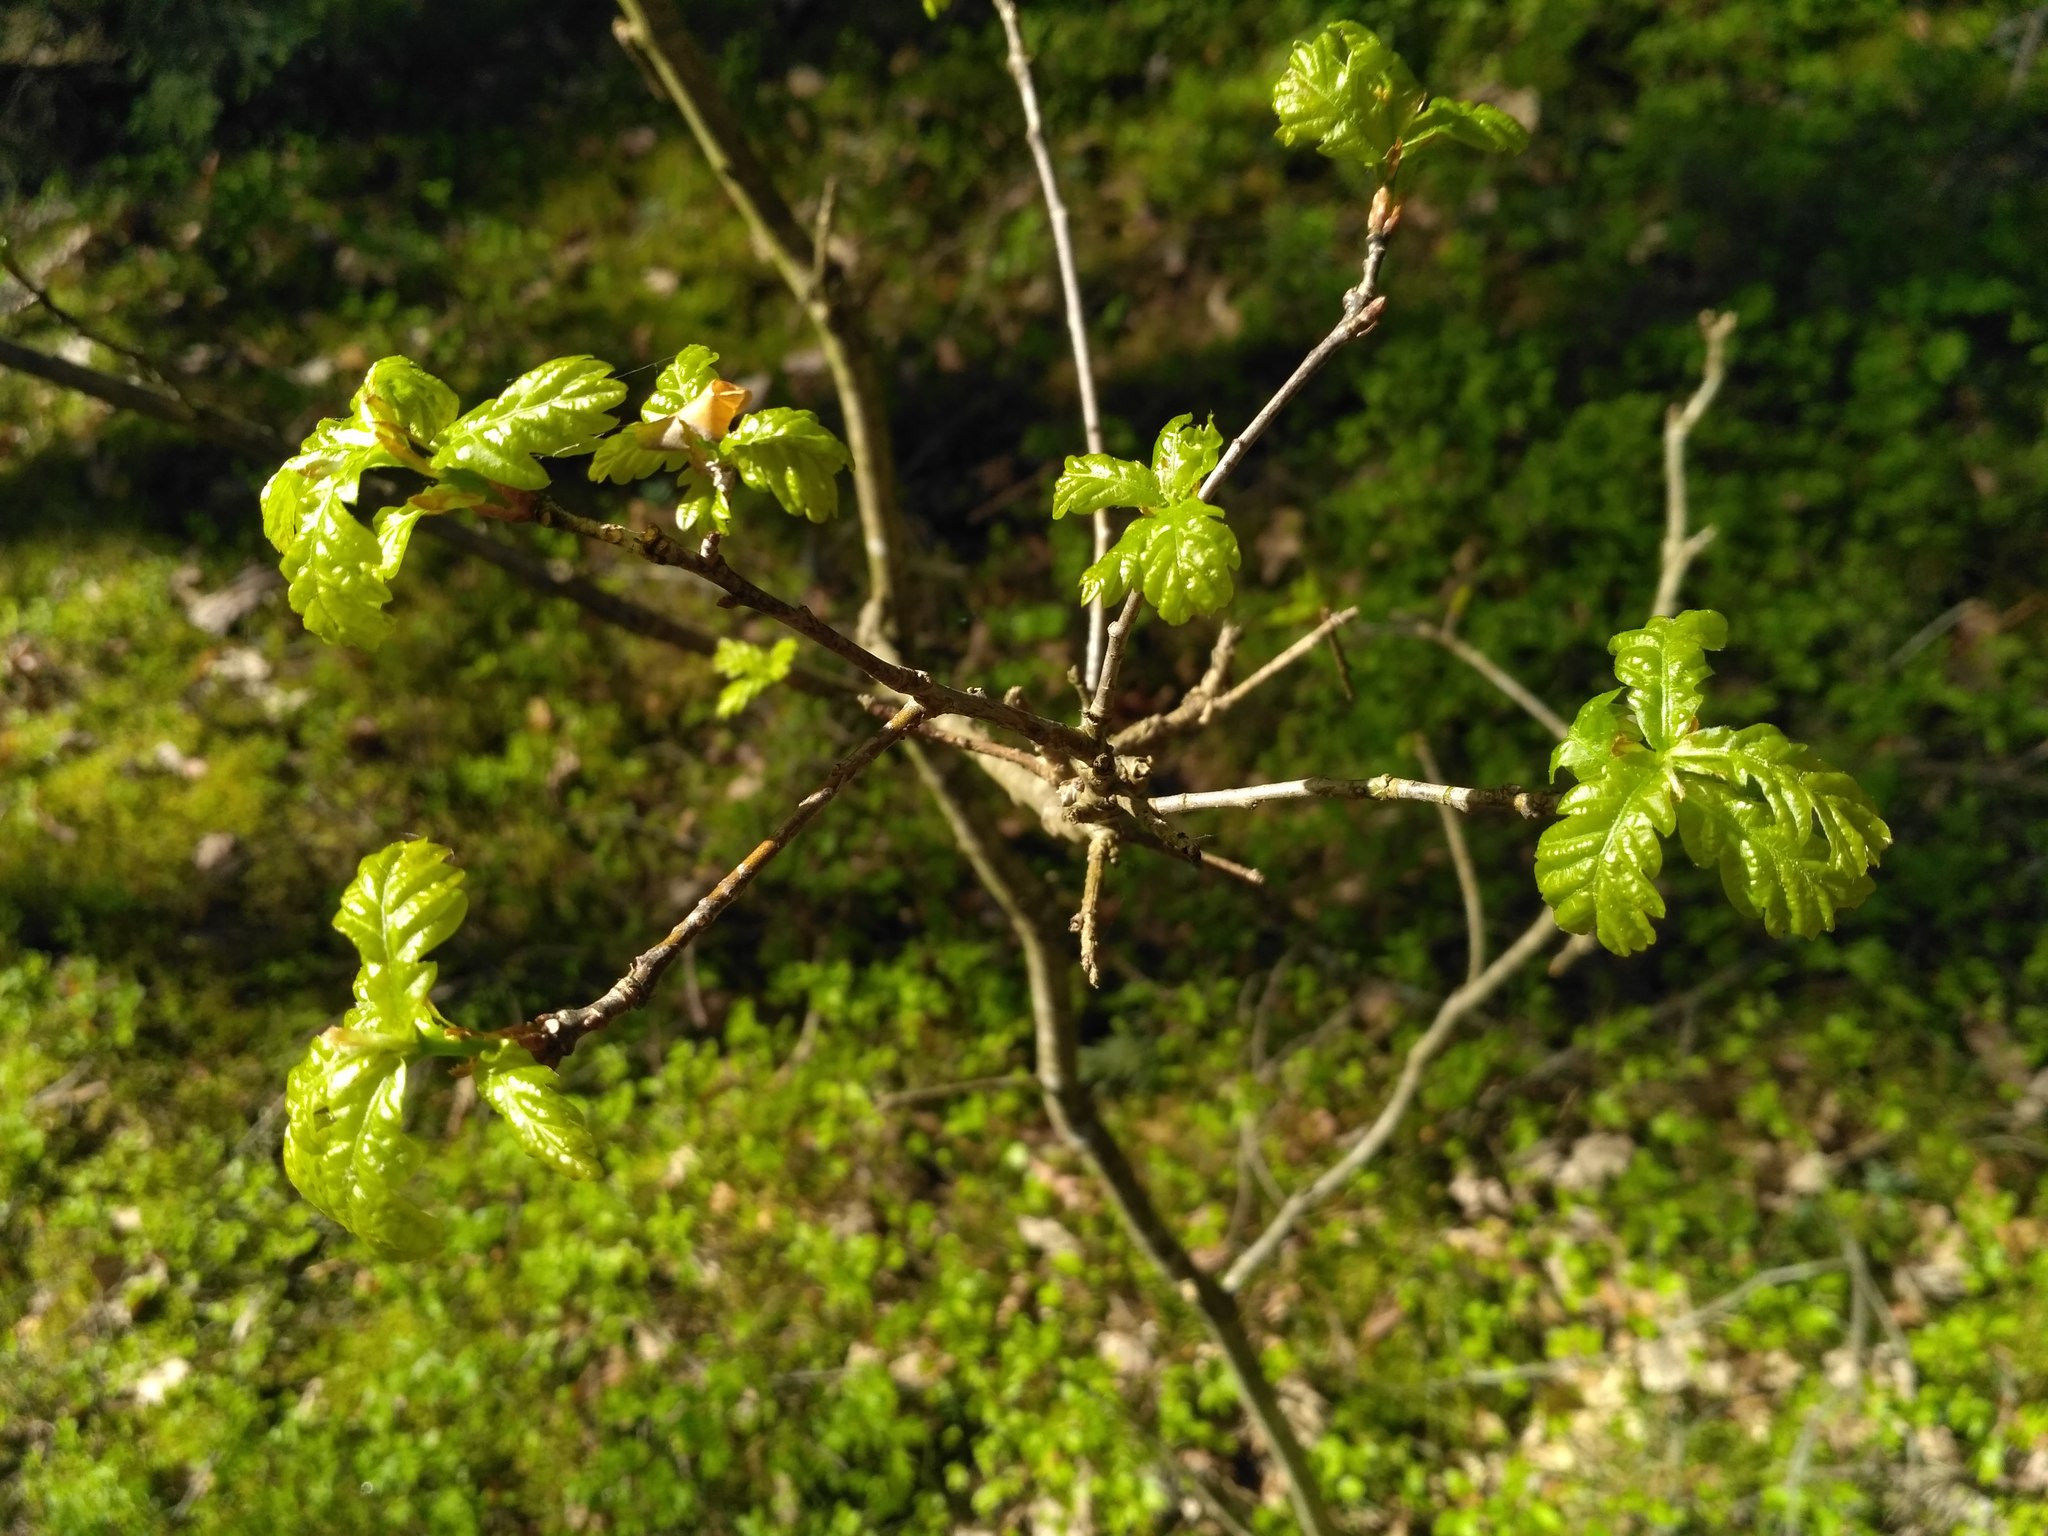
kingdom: Plantae
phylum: Tracheophyta
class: Magnoliopsida
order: Fagales
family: Fagaceae
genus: Quercus
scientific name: Quercus robur
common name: Pedunculate oak
